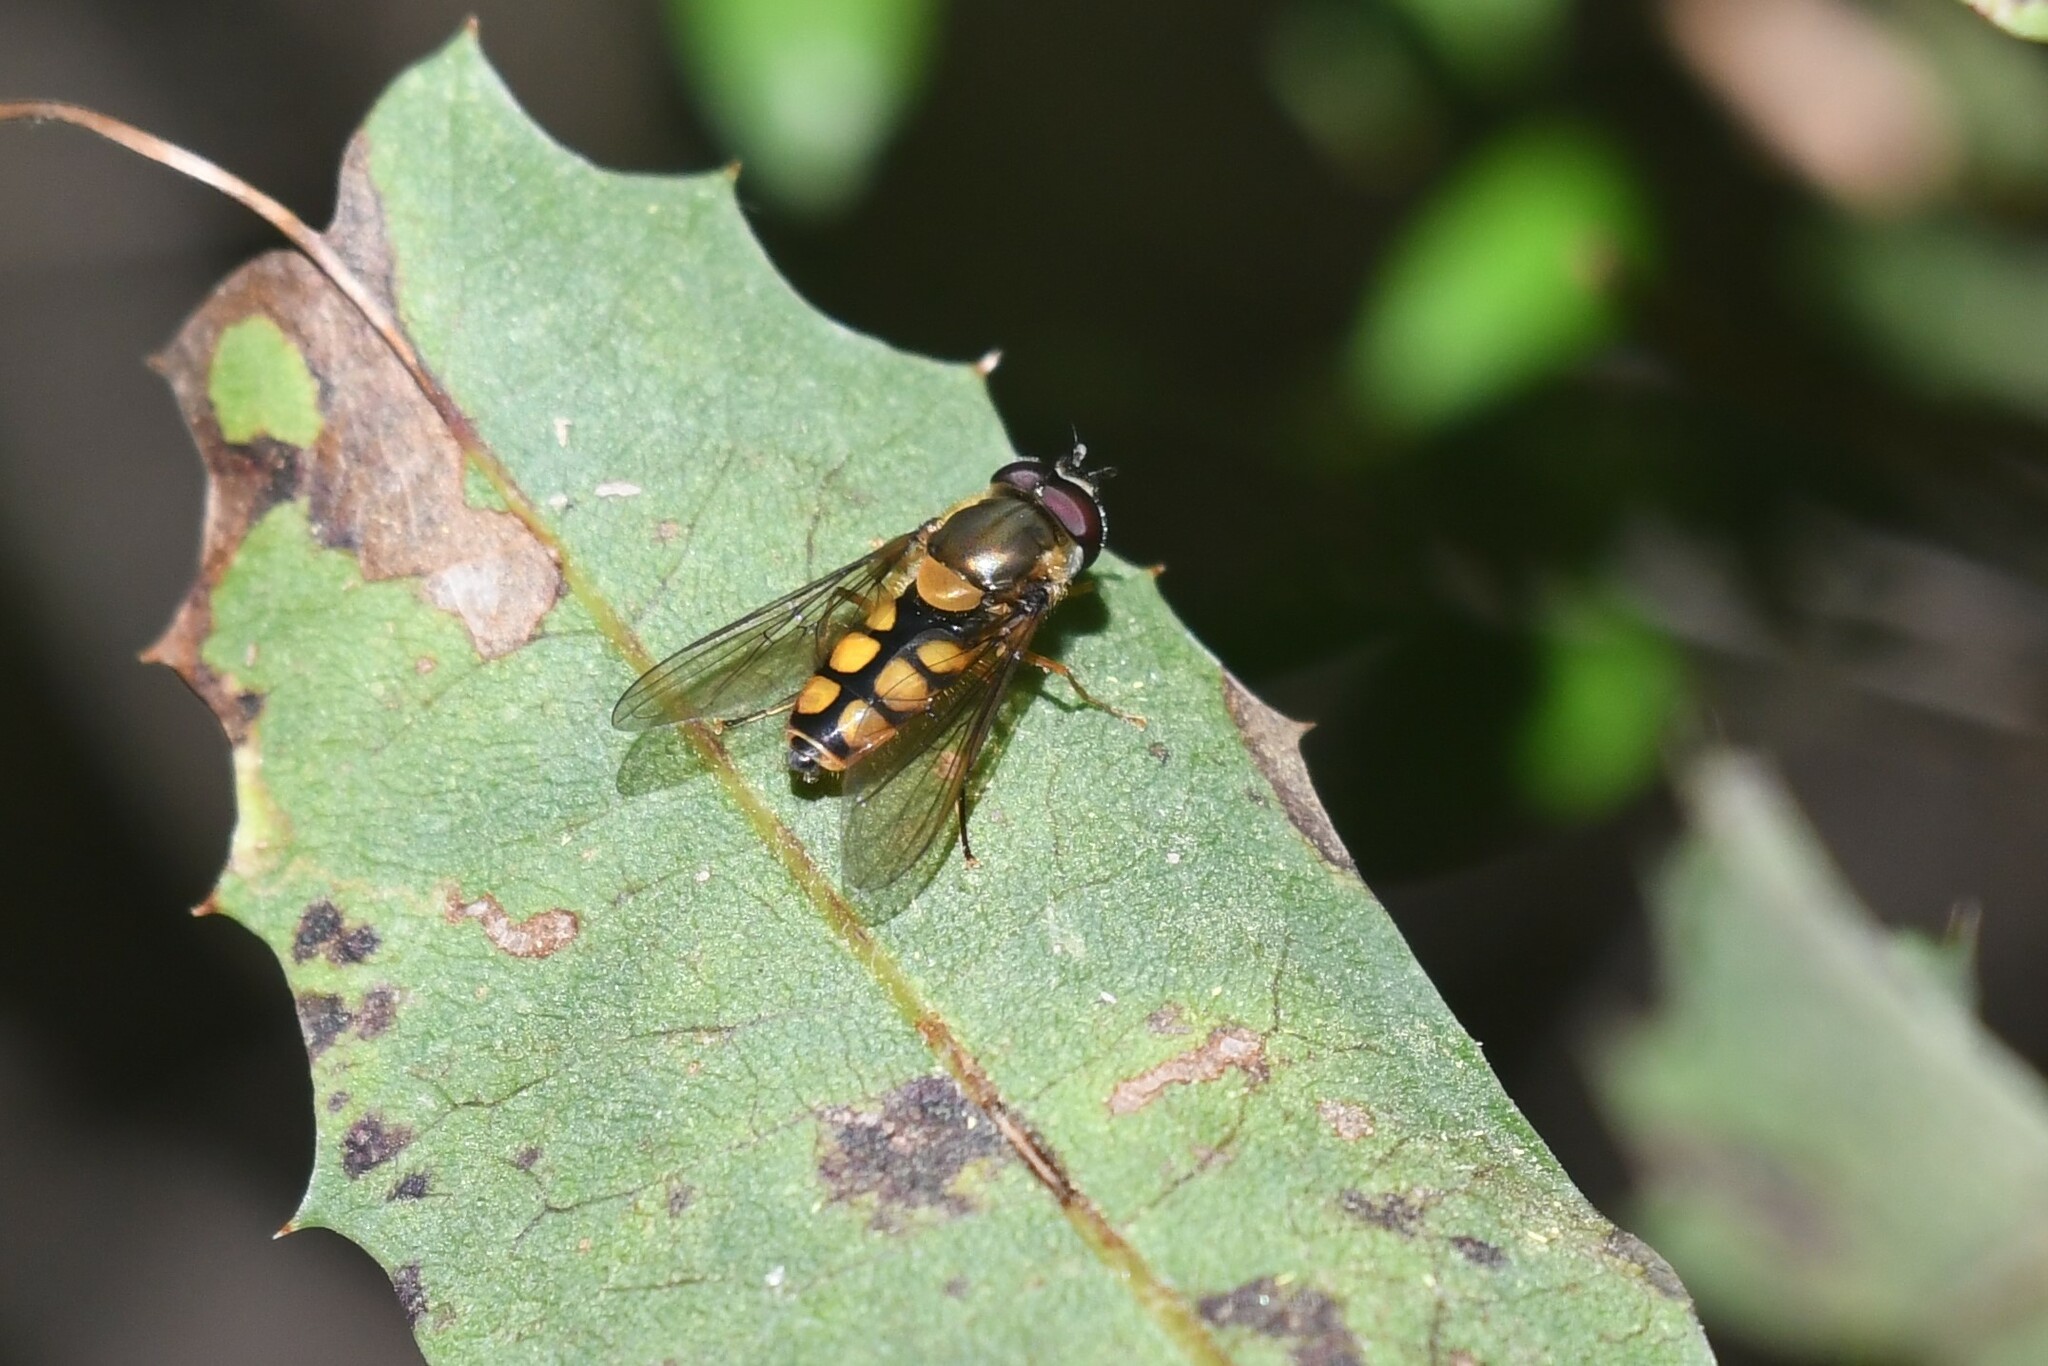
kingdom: Animalia
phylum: Arthropoda
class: Insecta
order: Diptera
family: Syrphidae
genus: Syrphus
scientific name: Syrphus octomaculatus
